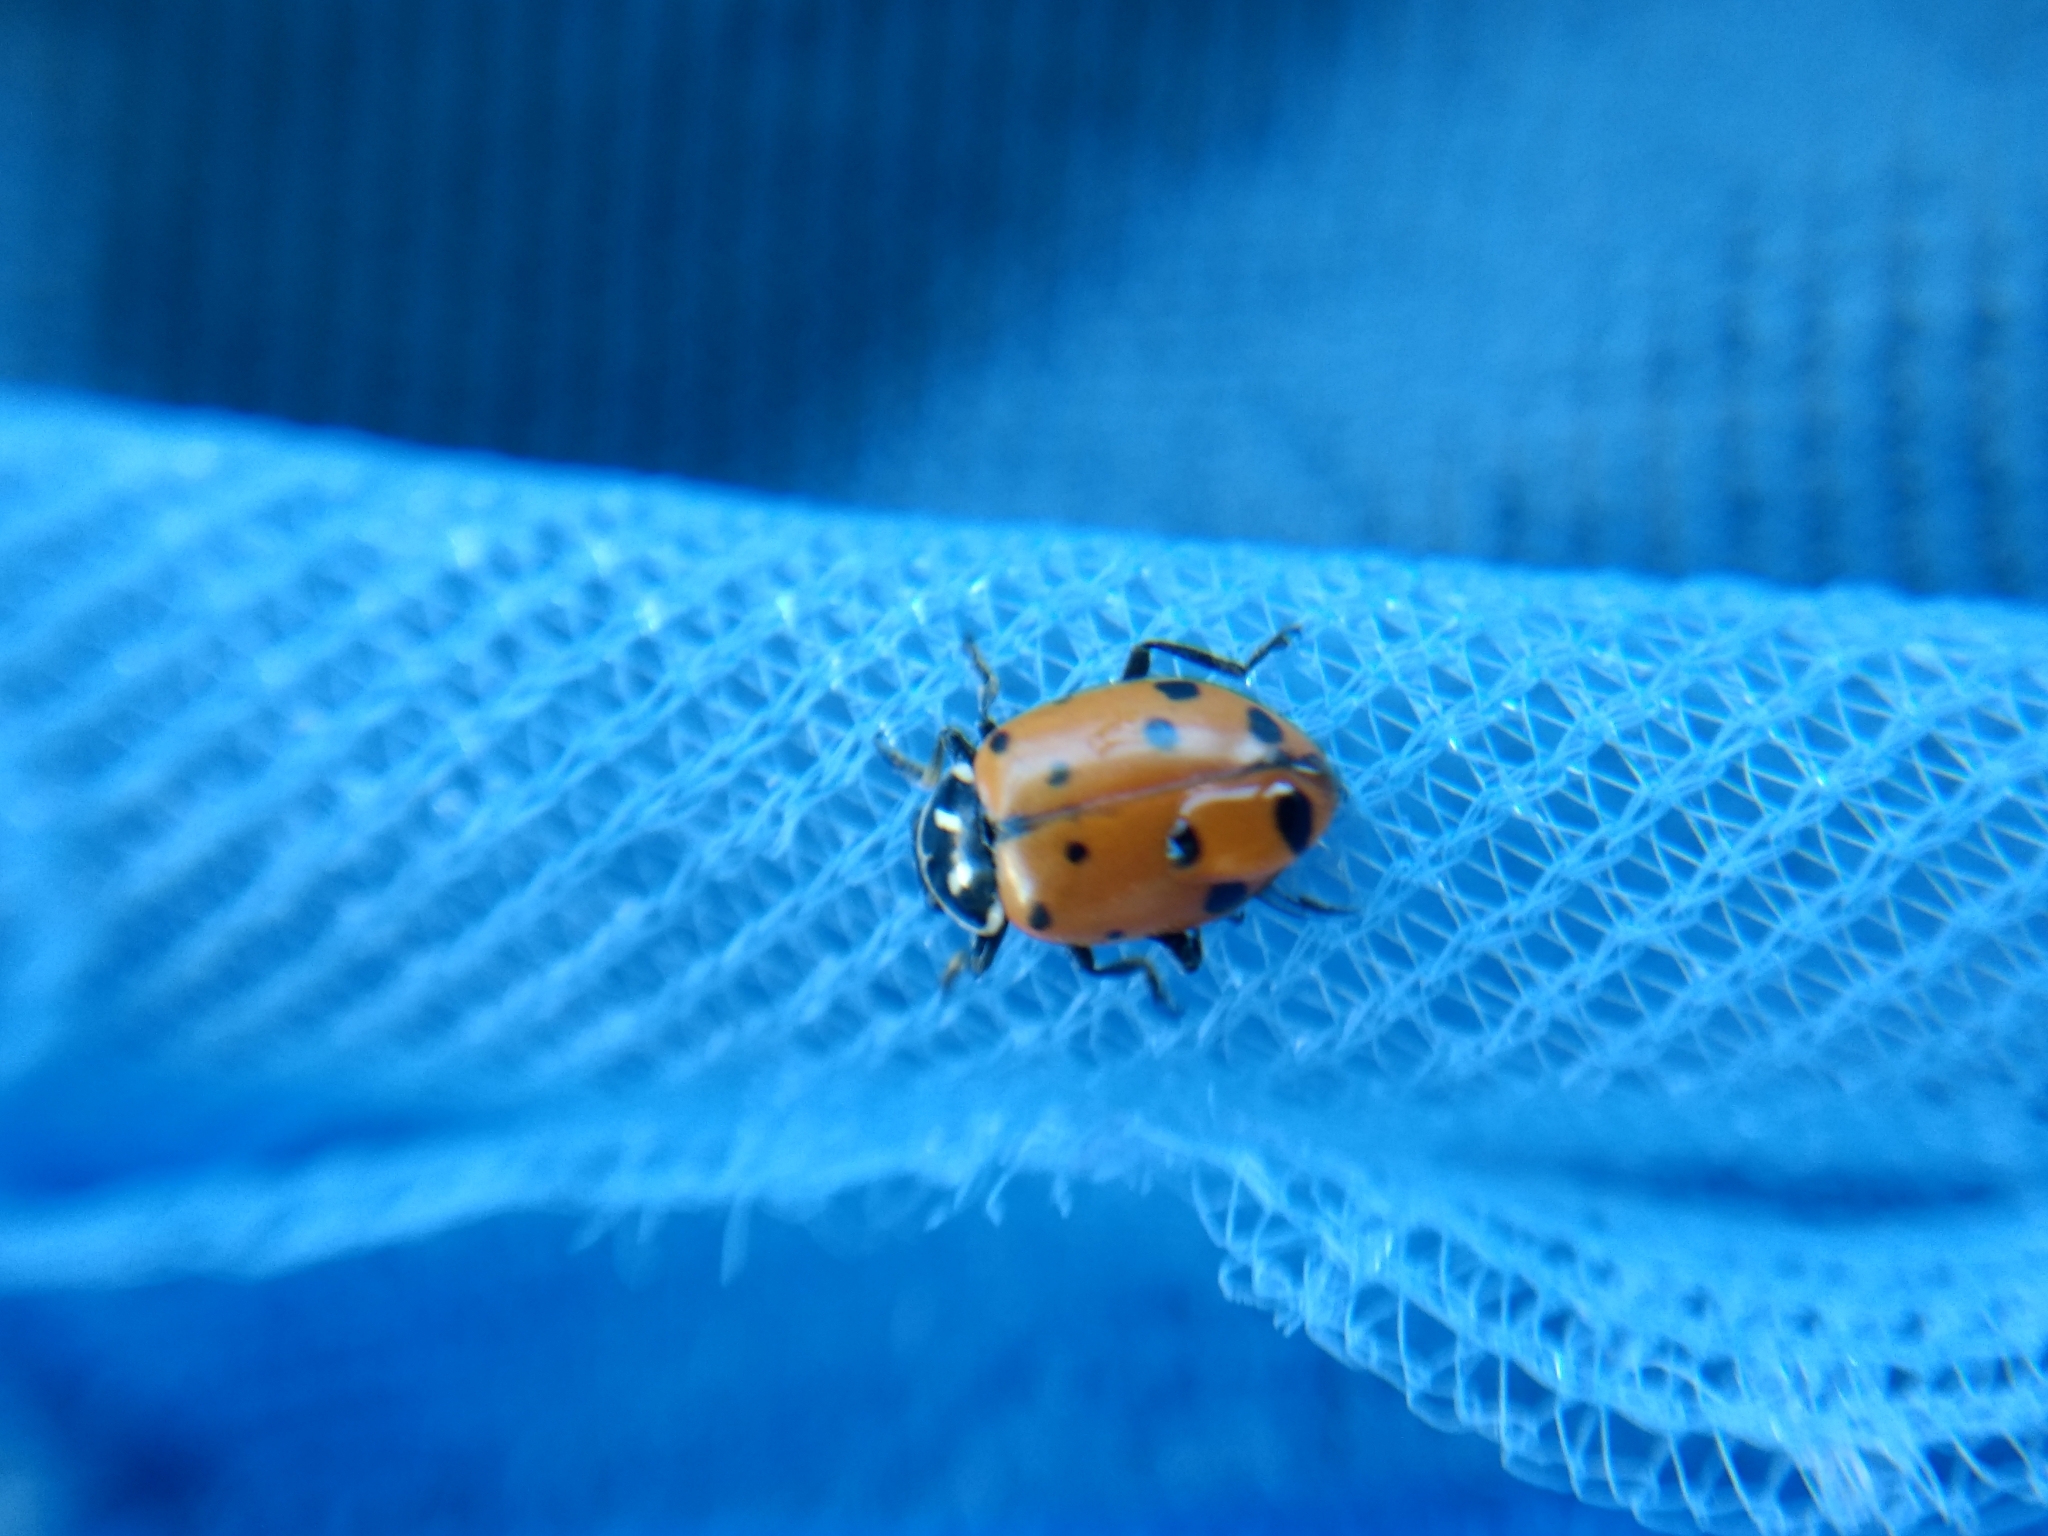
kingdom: Animalia
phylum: Arthropoda
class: Insecta
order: Coleoptera
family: Coccinellidae
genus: Hippodamia
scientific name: Hippodamia convergens
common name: Convergent lady beetle
